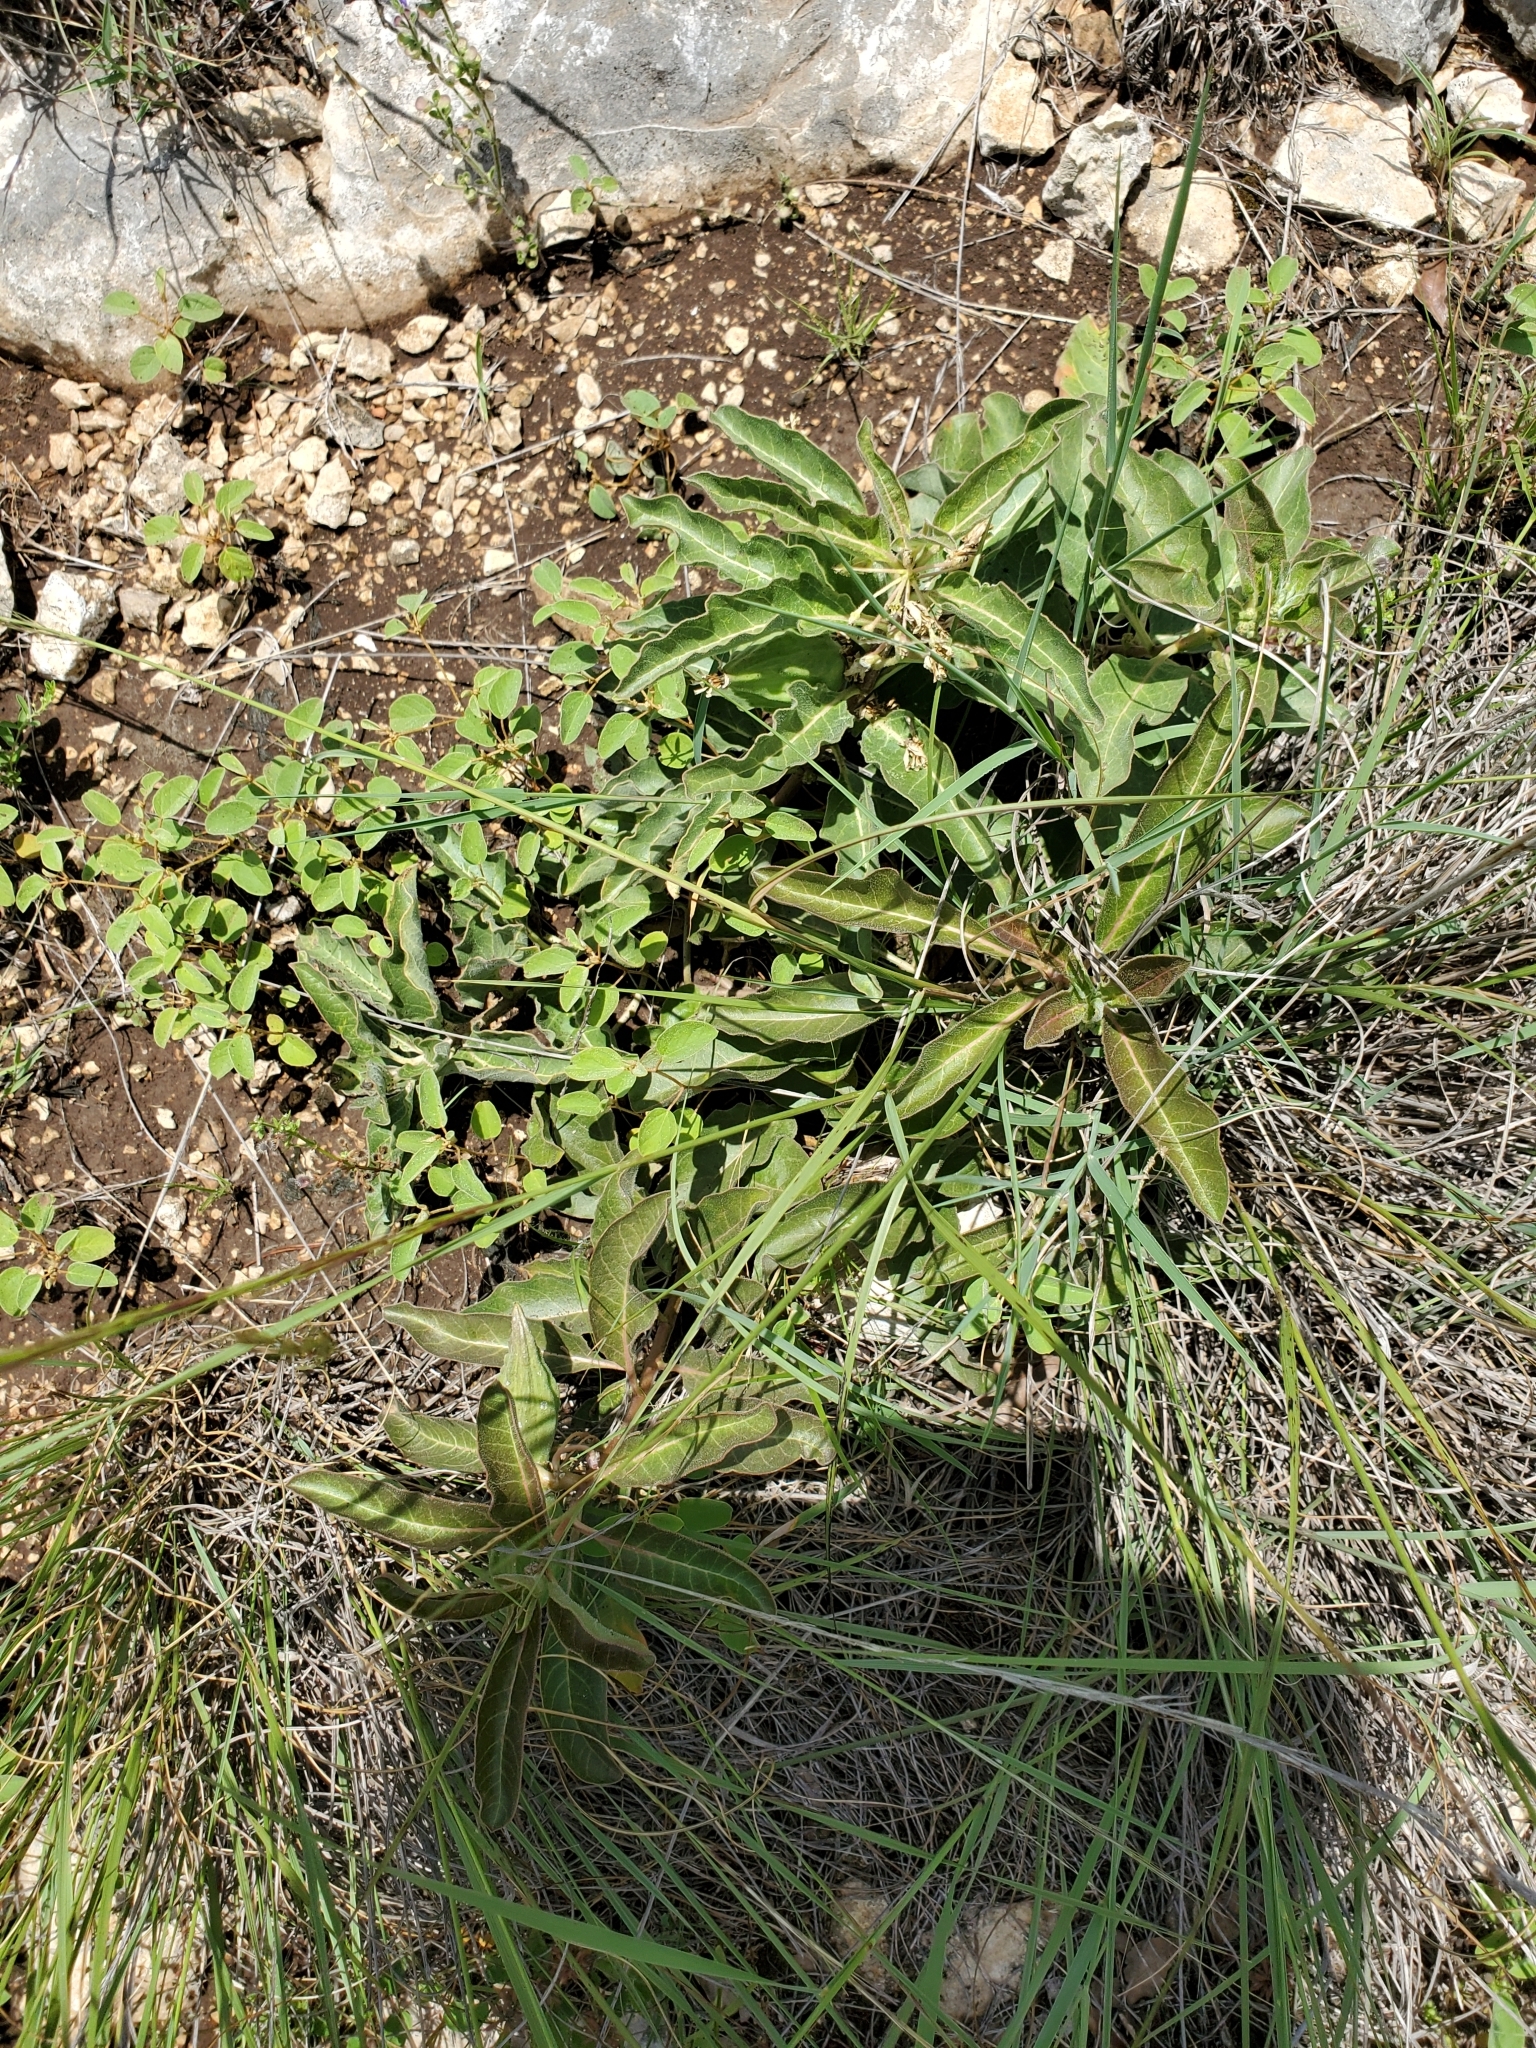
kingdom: Plantae
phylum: Tracheophyta
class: Magnoliopsida
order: Gentianales
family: Apocynaceae
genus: Asclepias
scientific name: Asclepias oenotheroides
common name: Zizotes milkweed
